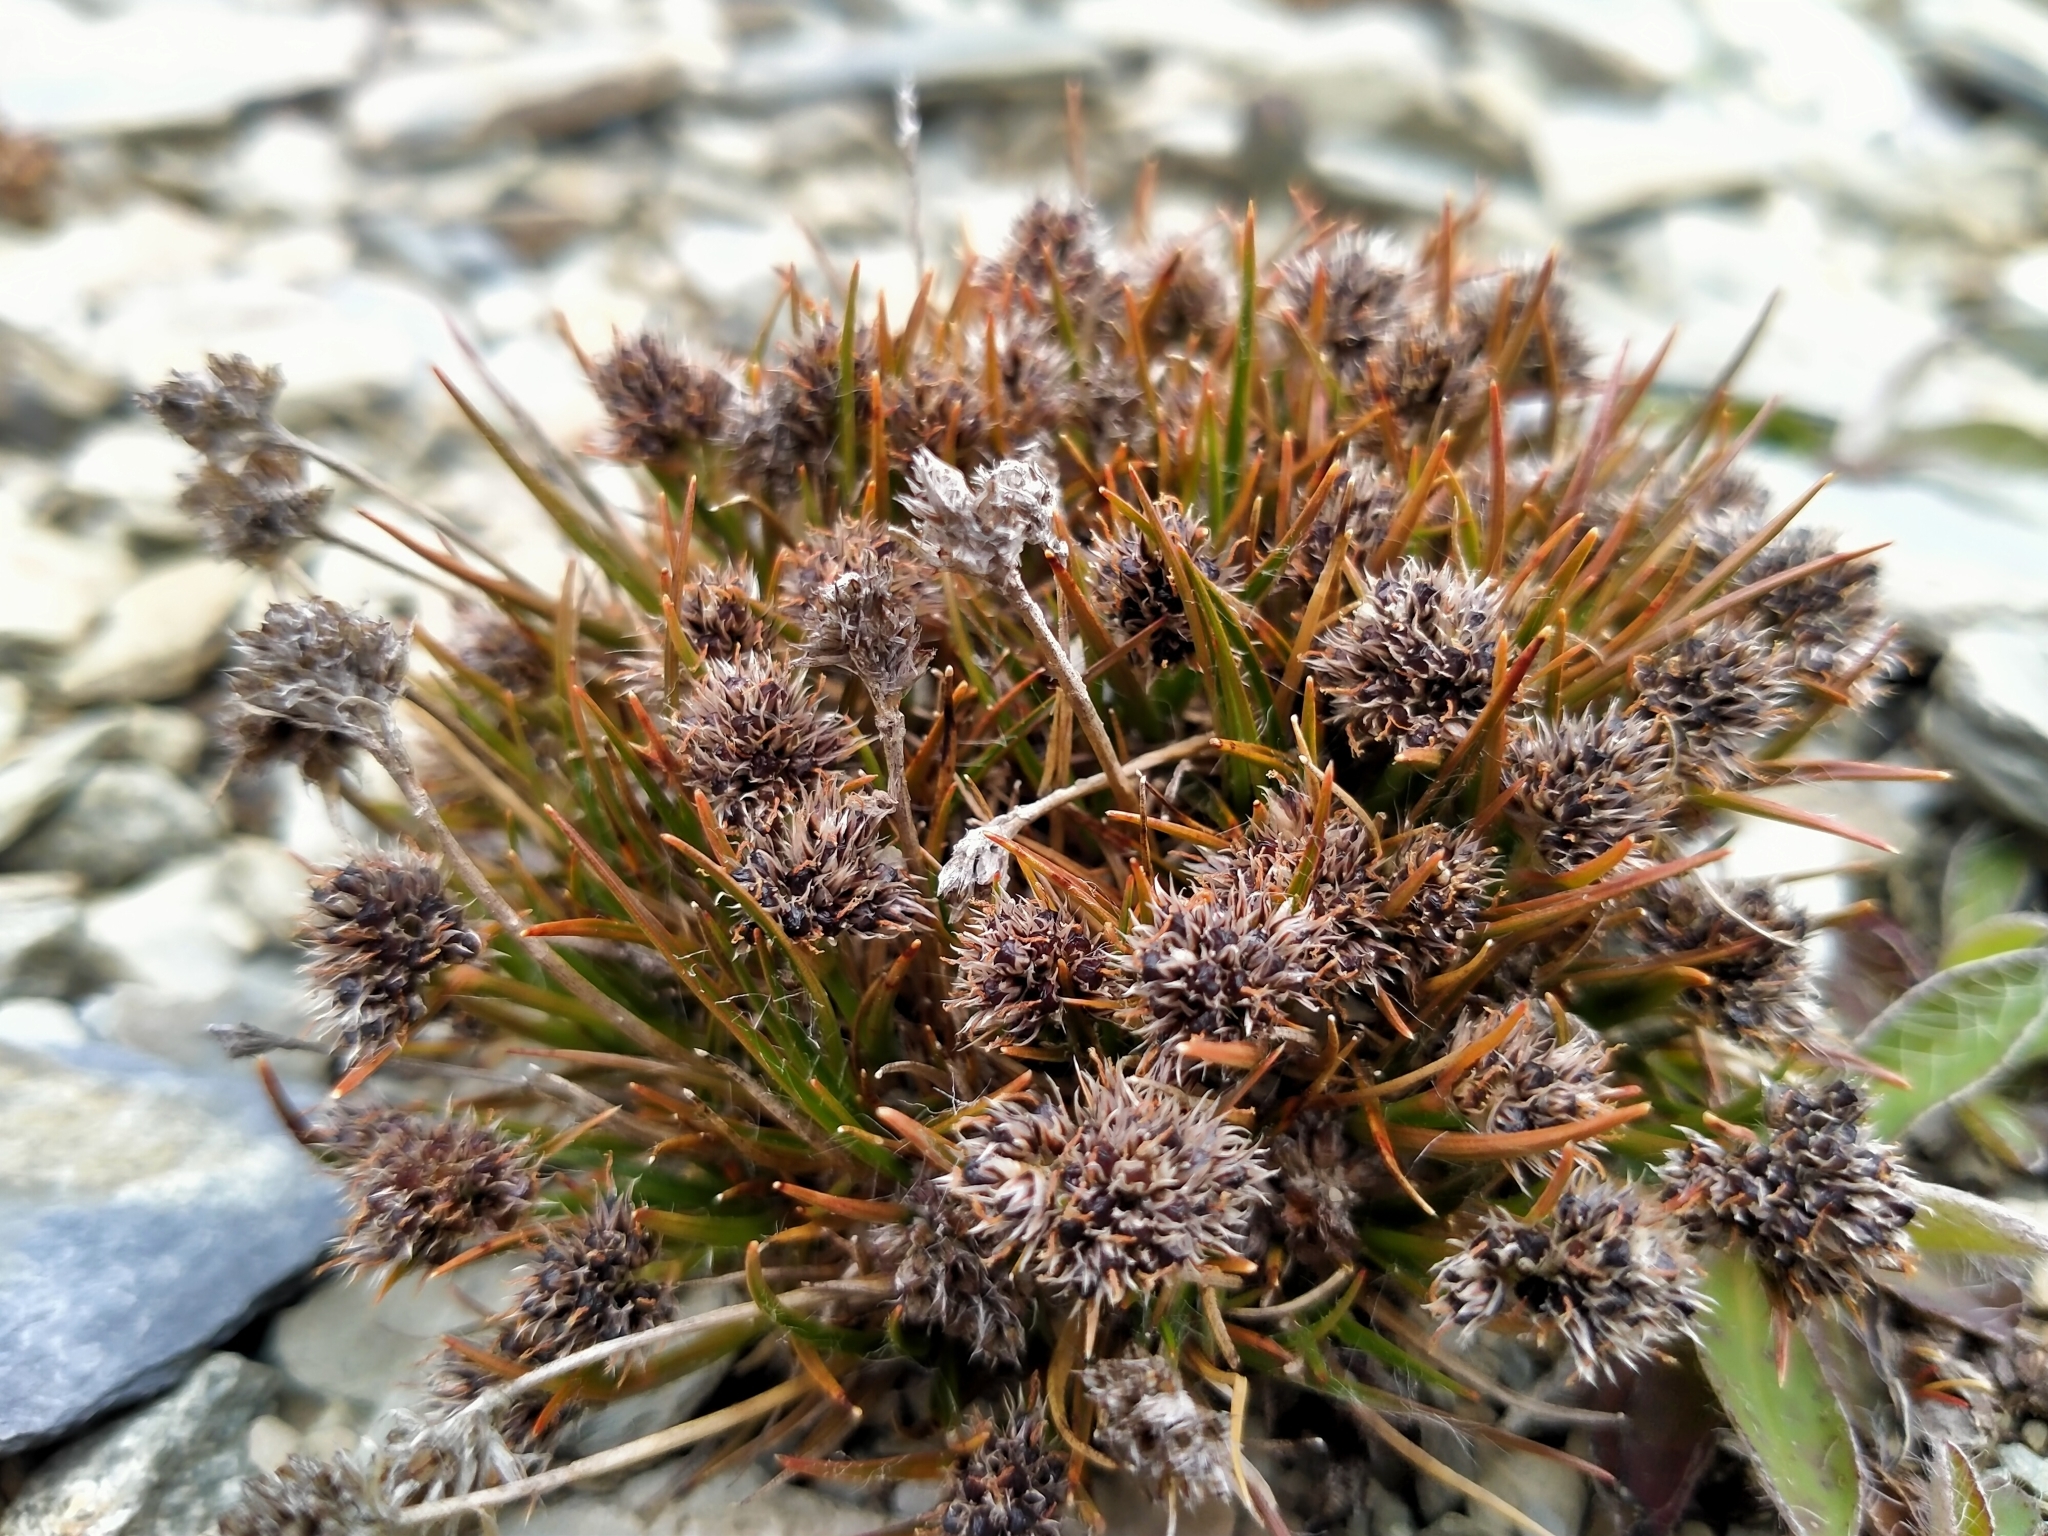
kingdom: Plantae
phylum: Tracheophyta
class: Liliopsida
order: Poales
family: Juncaceae
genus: Luzula
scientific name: Luzula pumila
